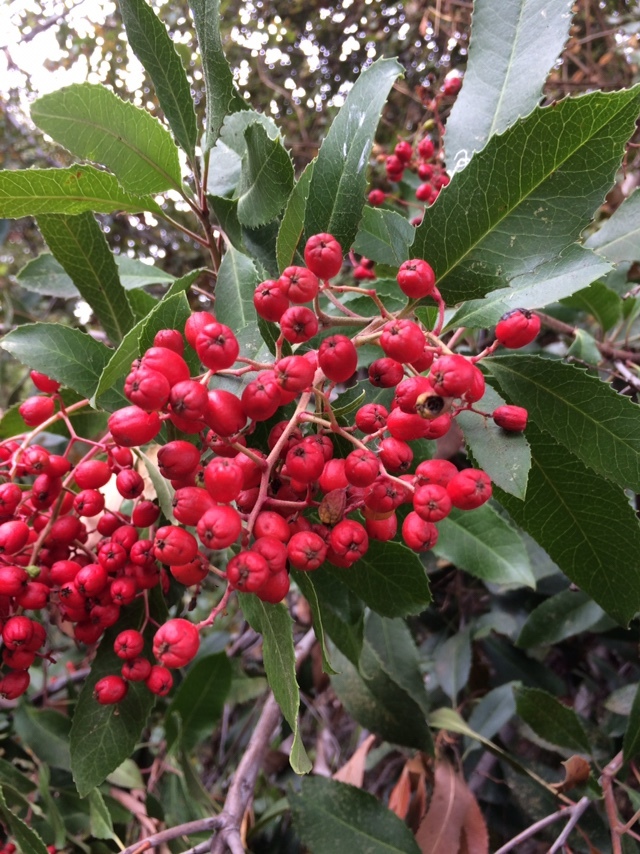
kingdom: Plantae
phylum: Tracheophyta
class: Magnoliopsida
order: Rosales
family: Rosaceae
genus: Heteromeles
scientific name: Heteromeles arbutifolia
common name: California-holly
